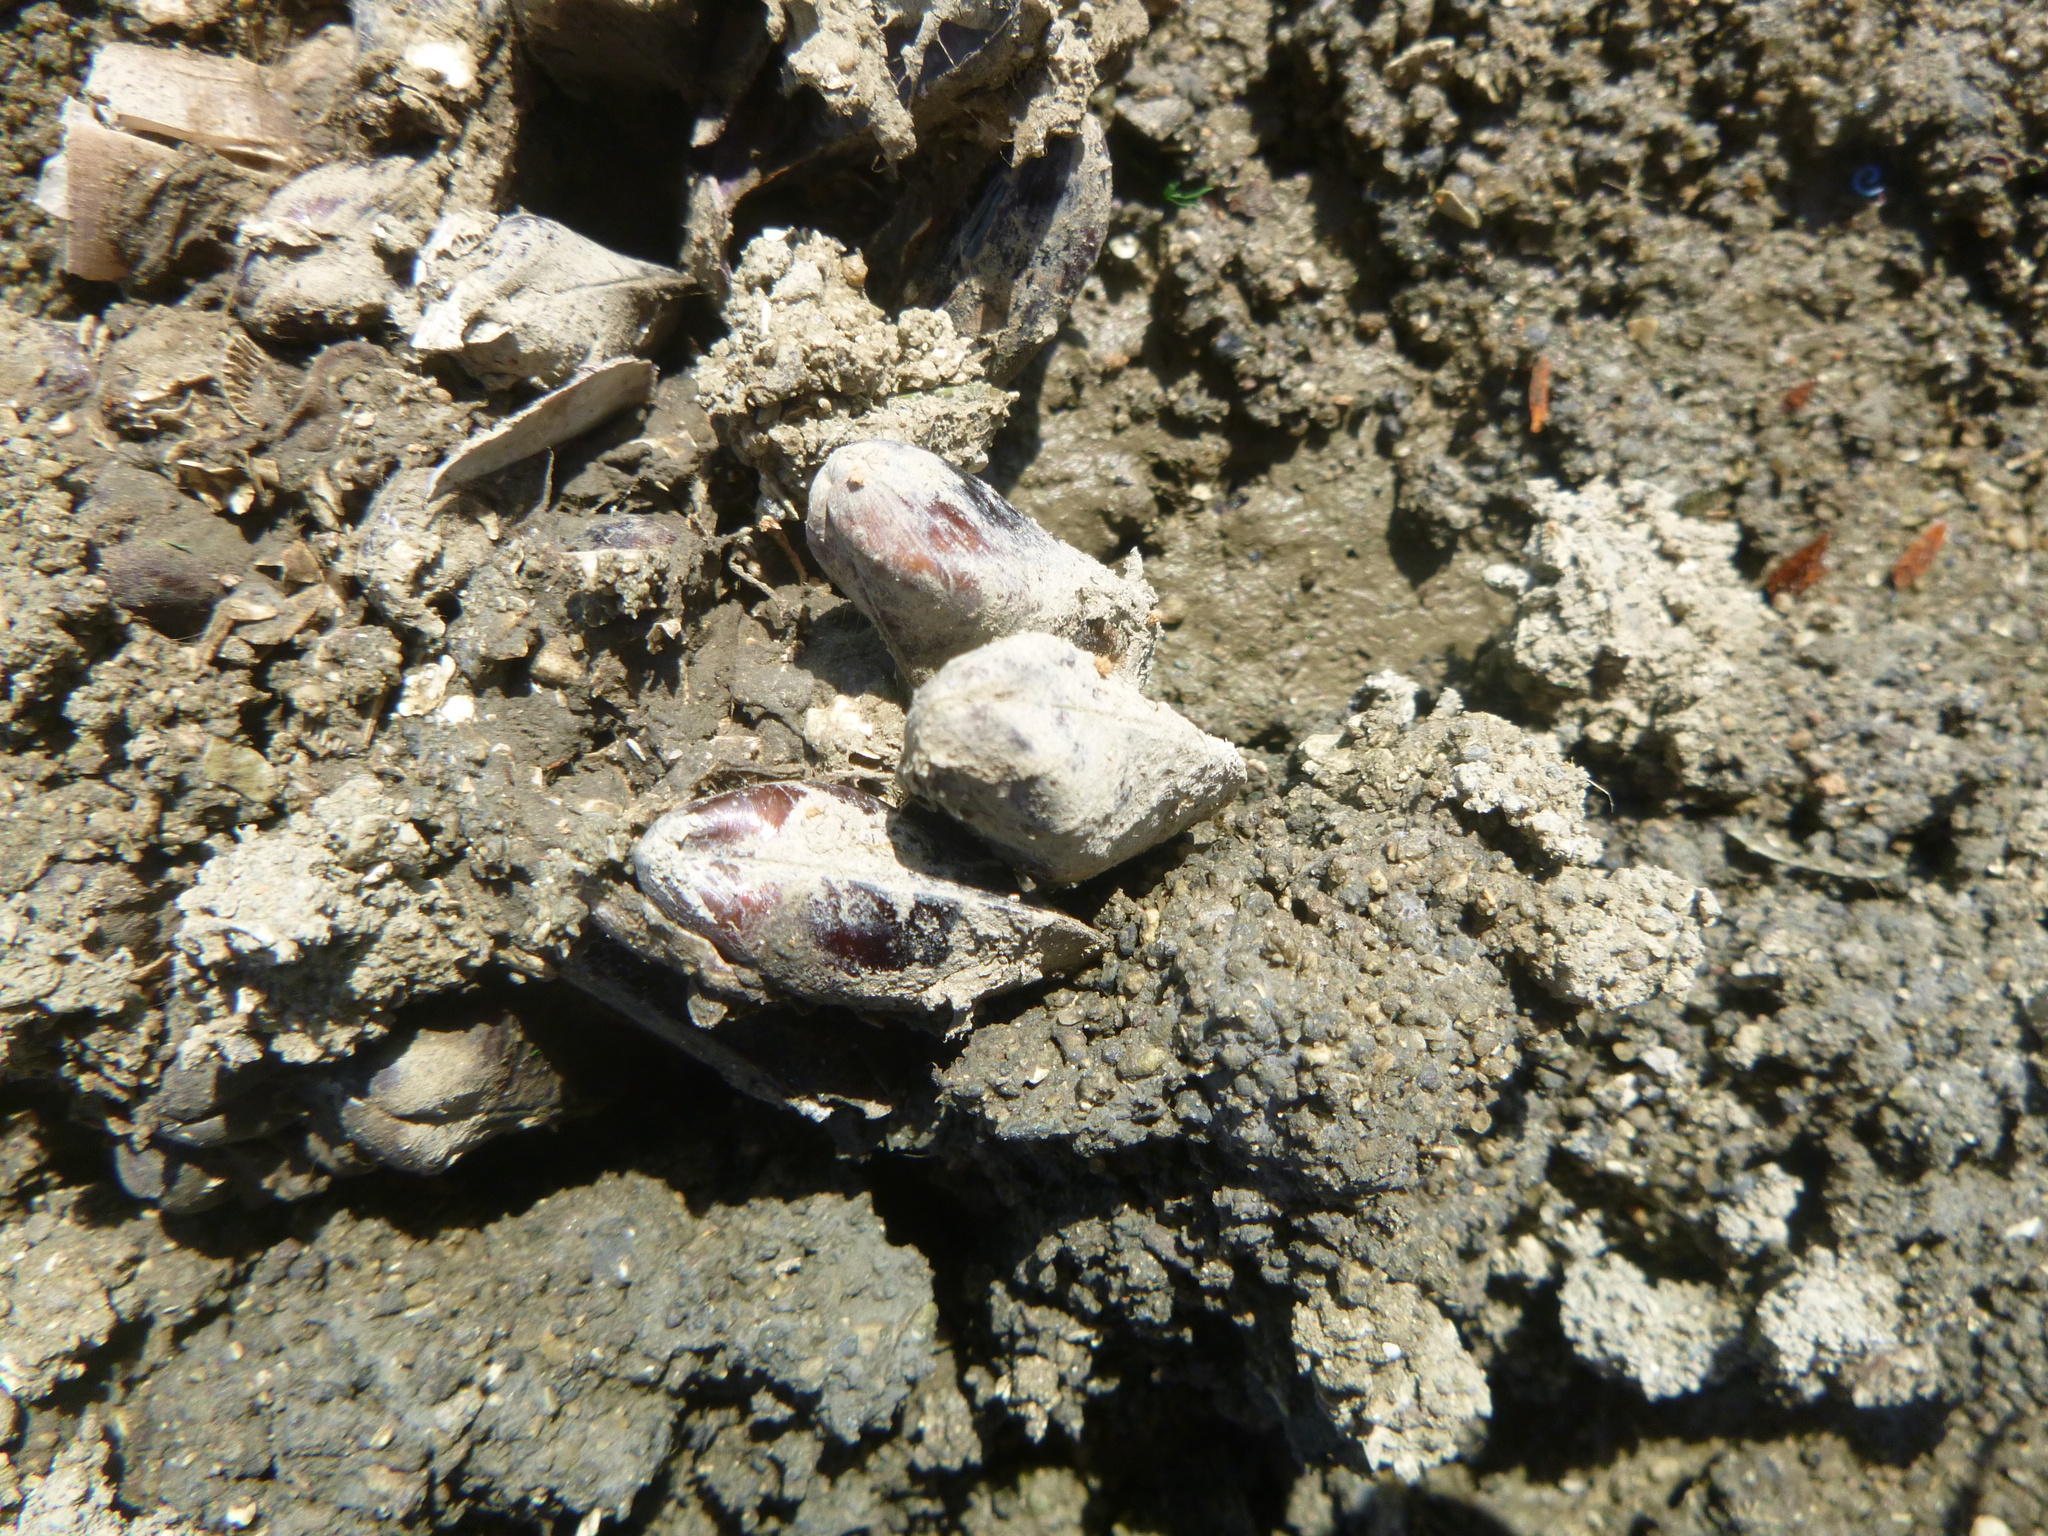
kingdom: Animalia
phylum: Mollusca
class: Bivalvia
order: Mytilida
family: Mytilidae
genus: Xenostrobus
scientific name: Xenostrobus securis
